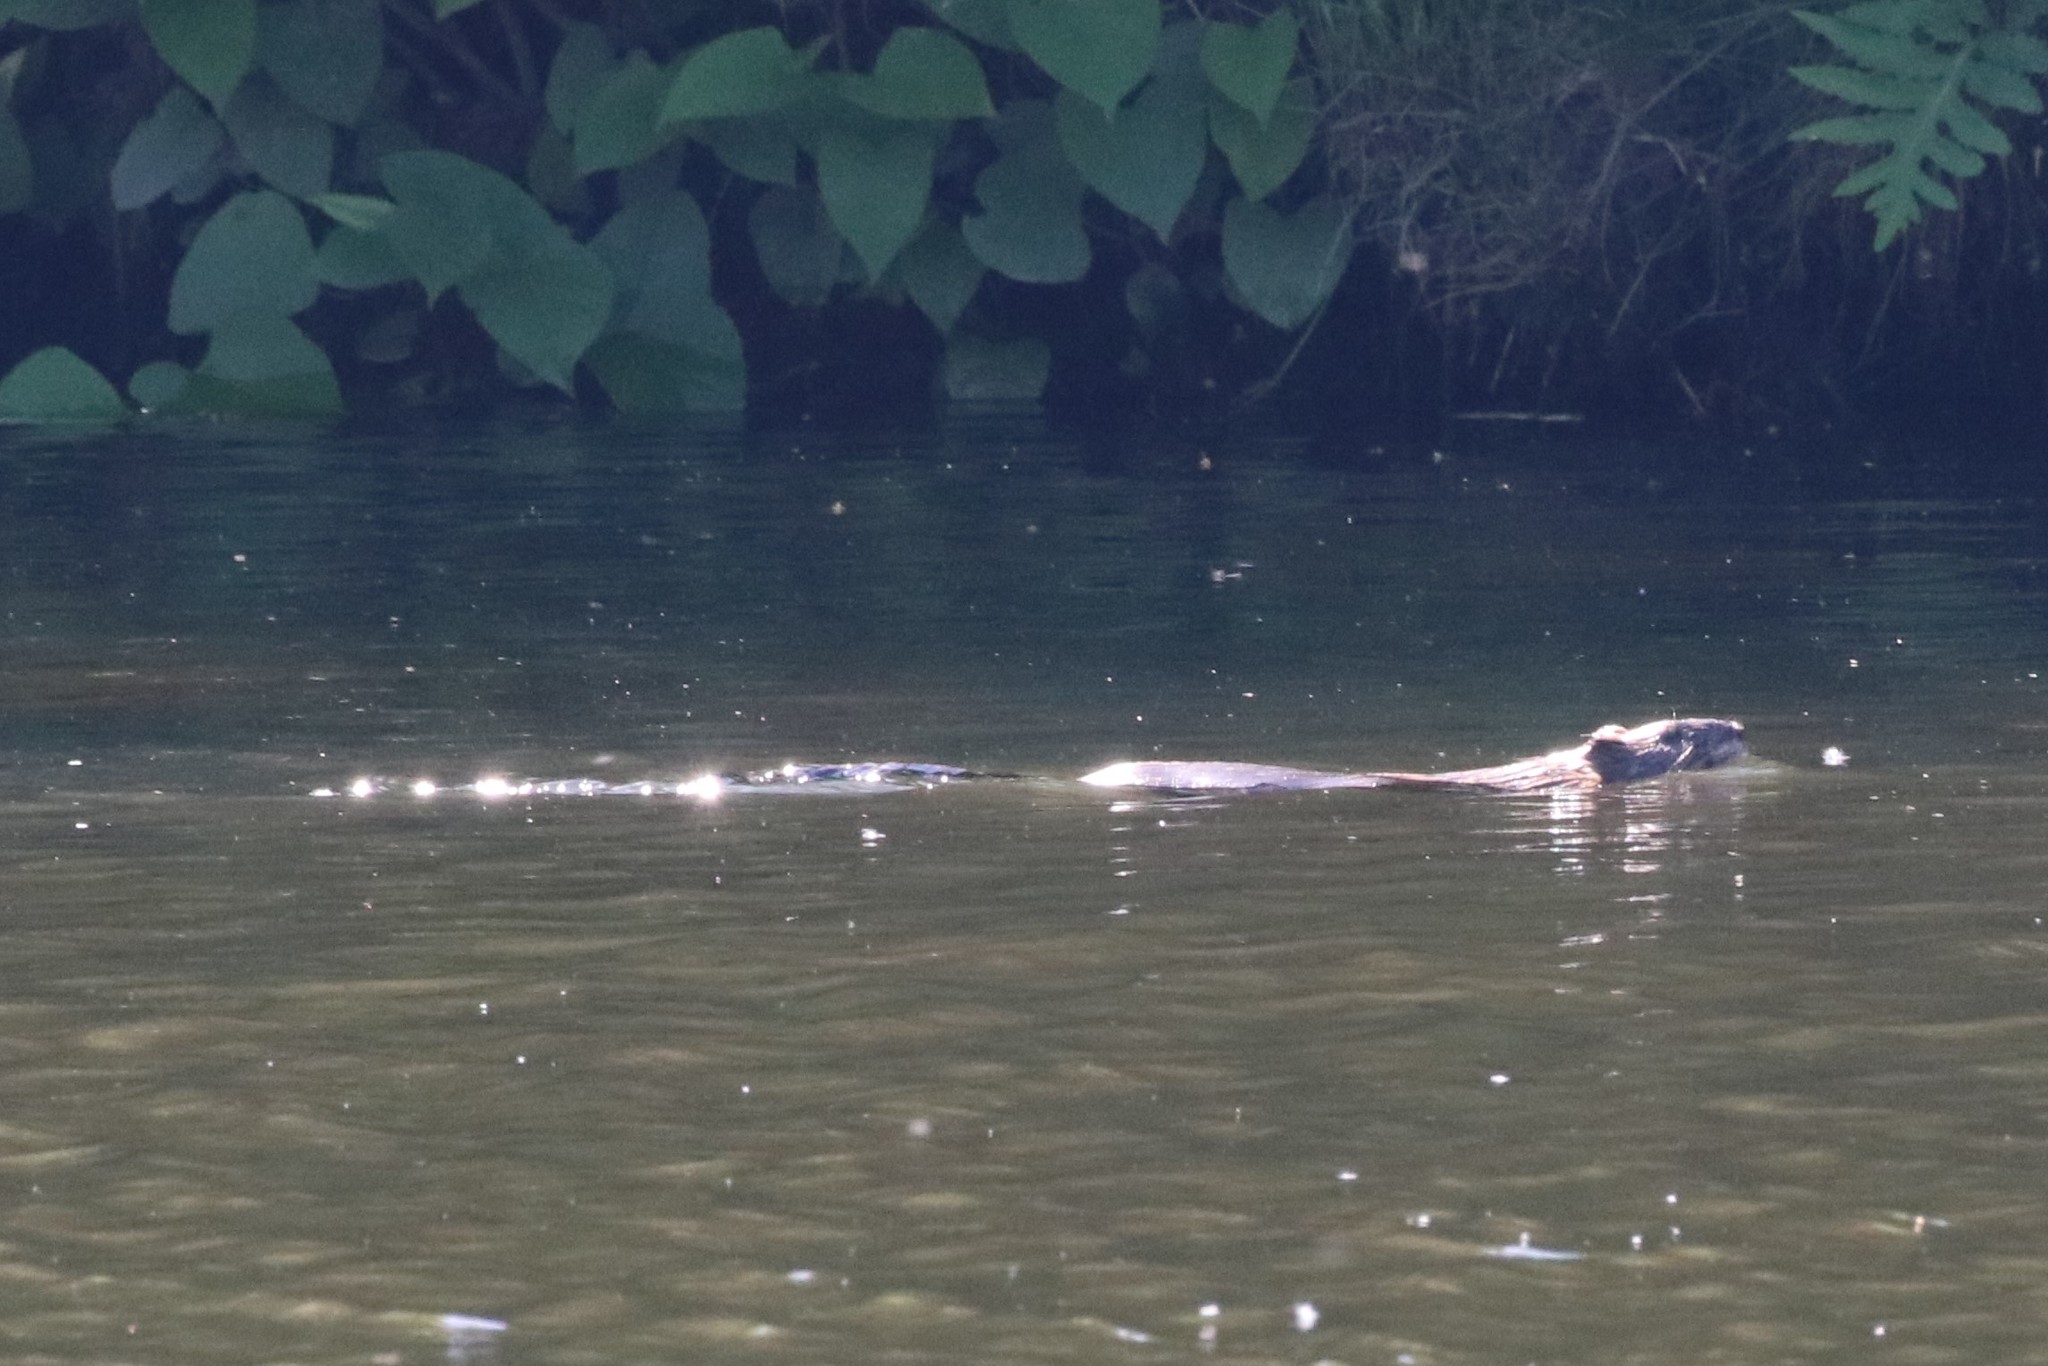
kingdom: Animalia
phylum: Chordata
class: Mammalia
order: Rodentia
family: Cricetidae
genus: Ondatra
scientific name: Ondatra zibethicus
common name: Muskrat
